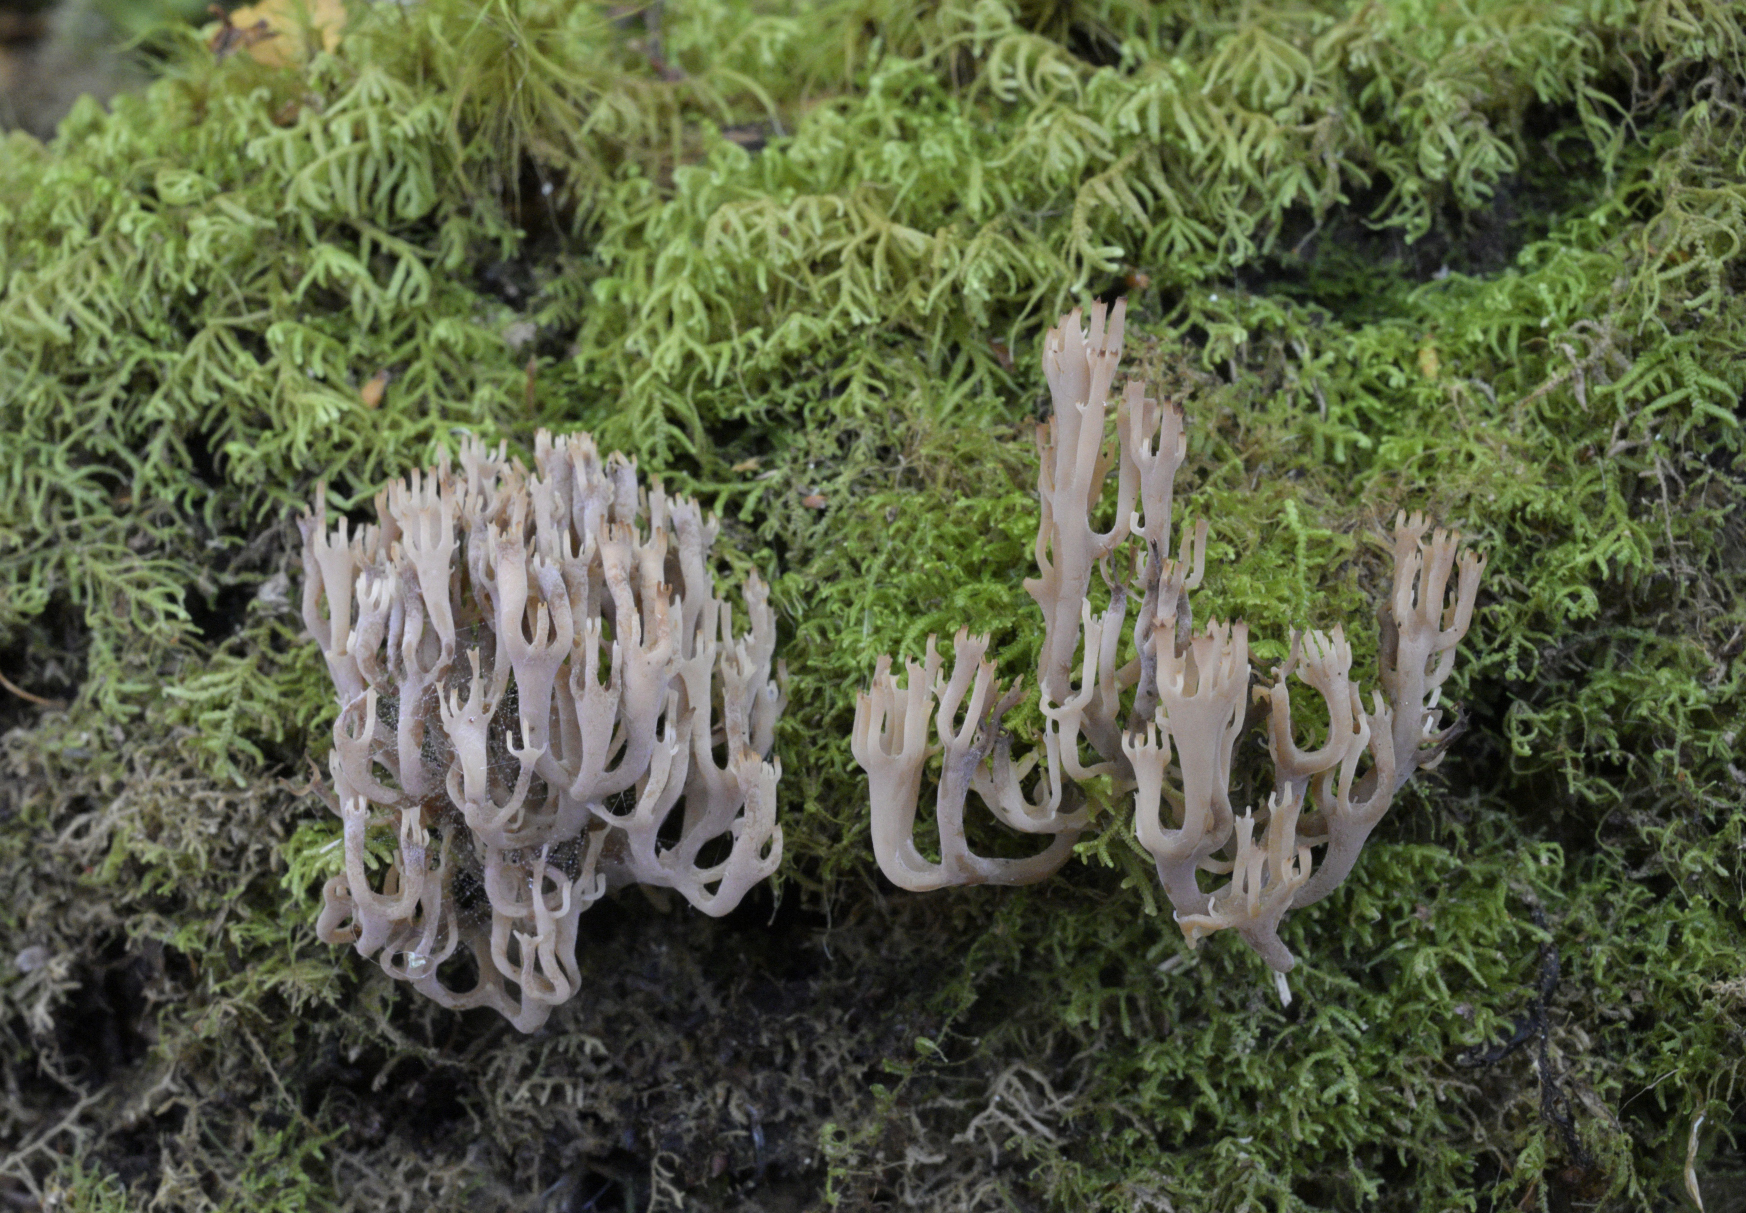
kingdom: Fungi
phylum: Basidiomycota
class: Agaricomycetes
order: Russulales
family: Auriscalpiaceae
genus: Artomyces
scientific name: Artomyces novae-zelandiae
